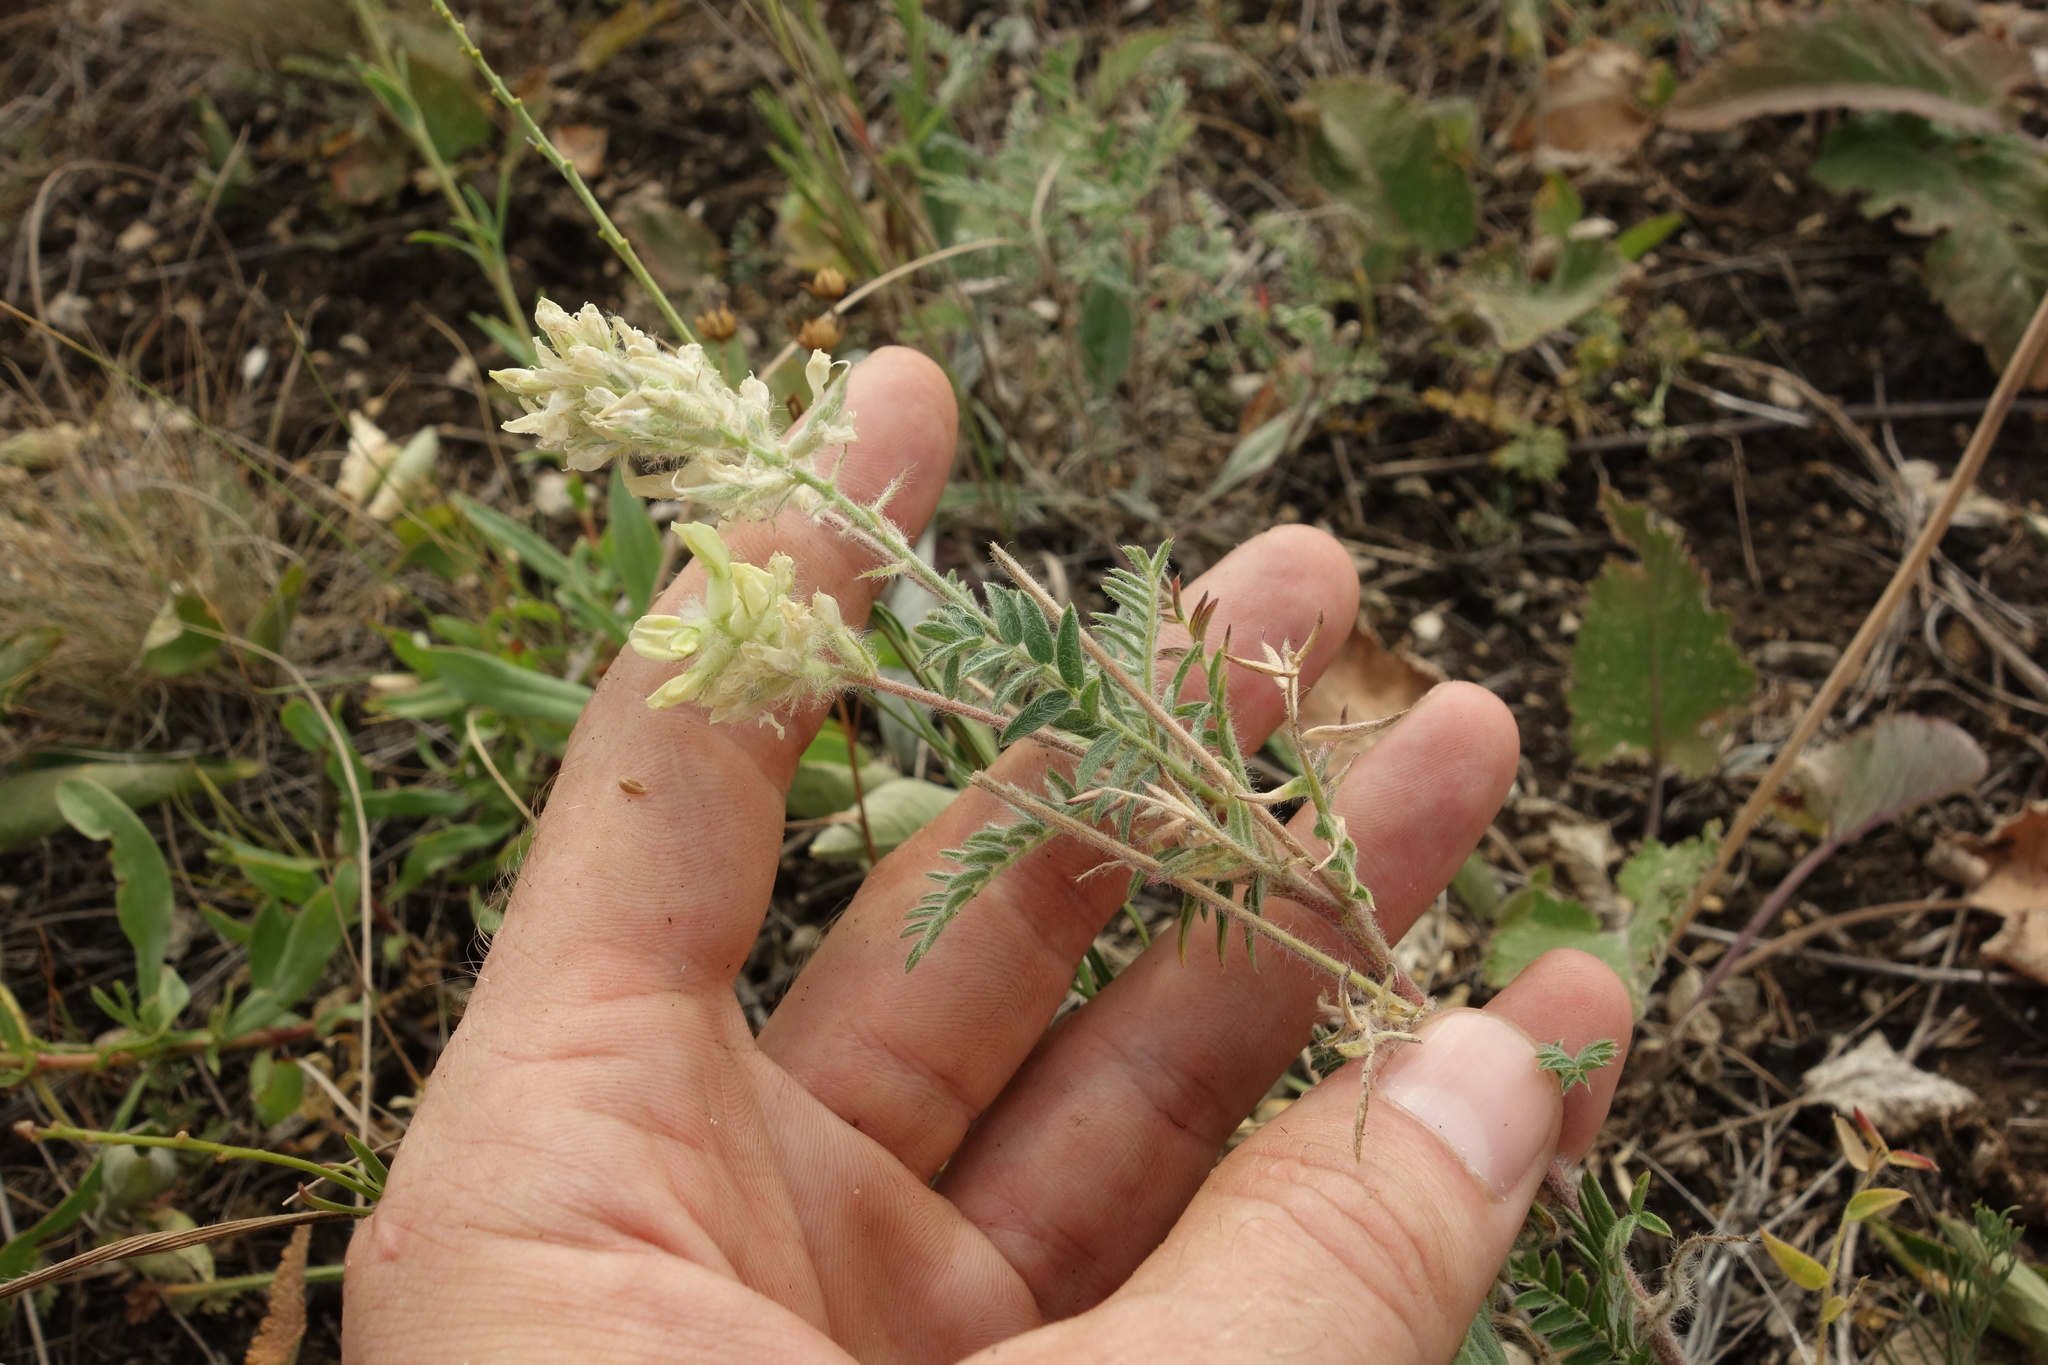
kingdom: Plantae
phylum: Tracheophyta
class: Magnoliopsida
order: Fabales
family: Fabaceae
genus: Oxytropis
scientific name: Oxytropis pilosa
